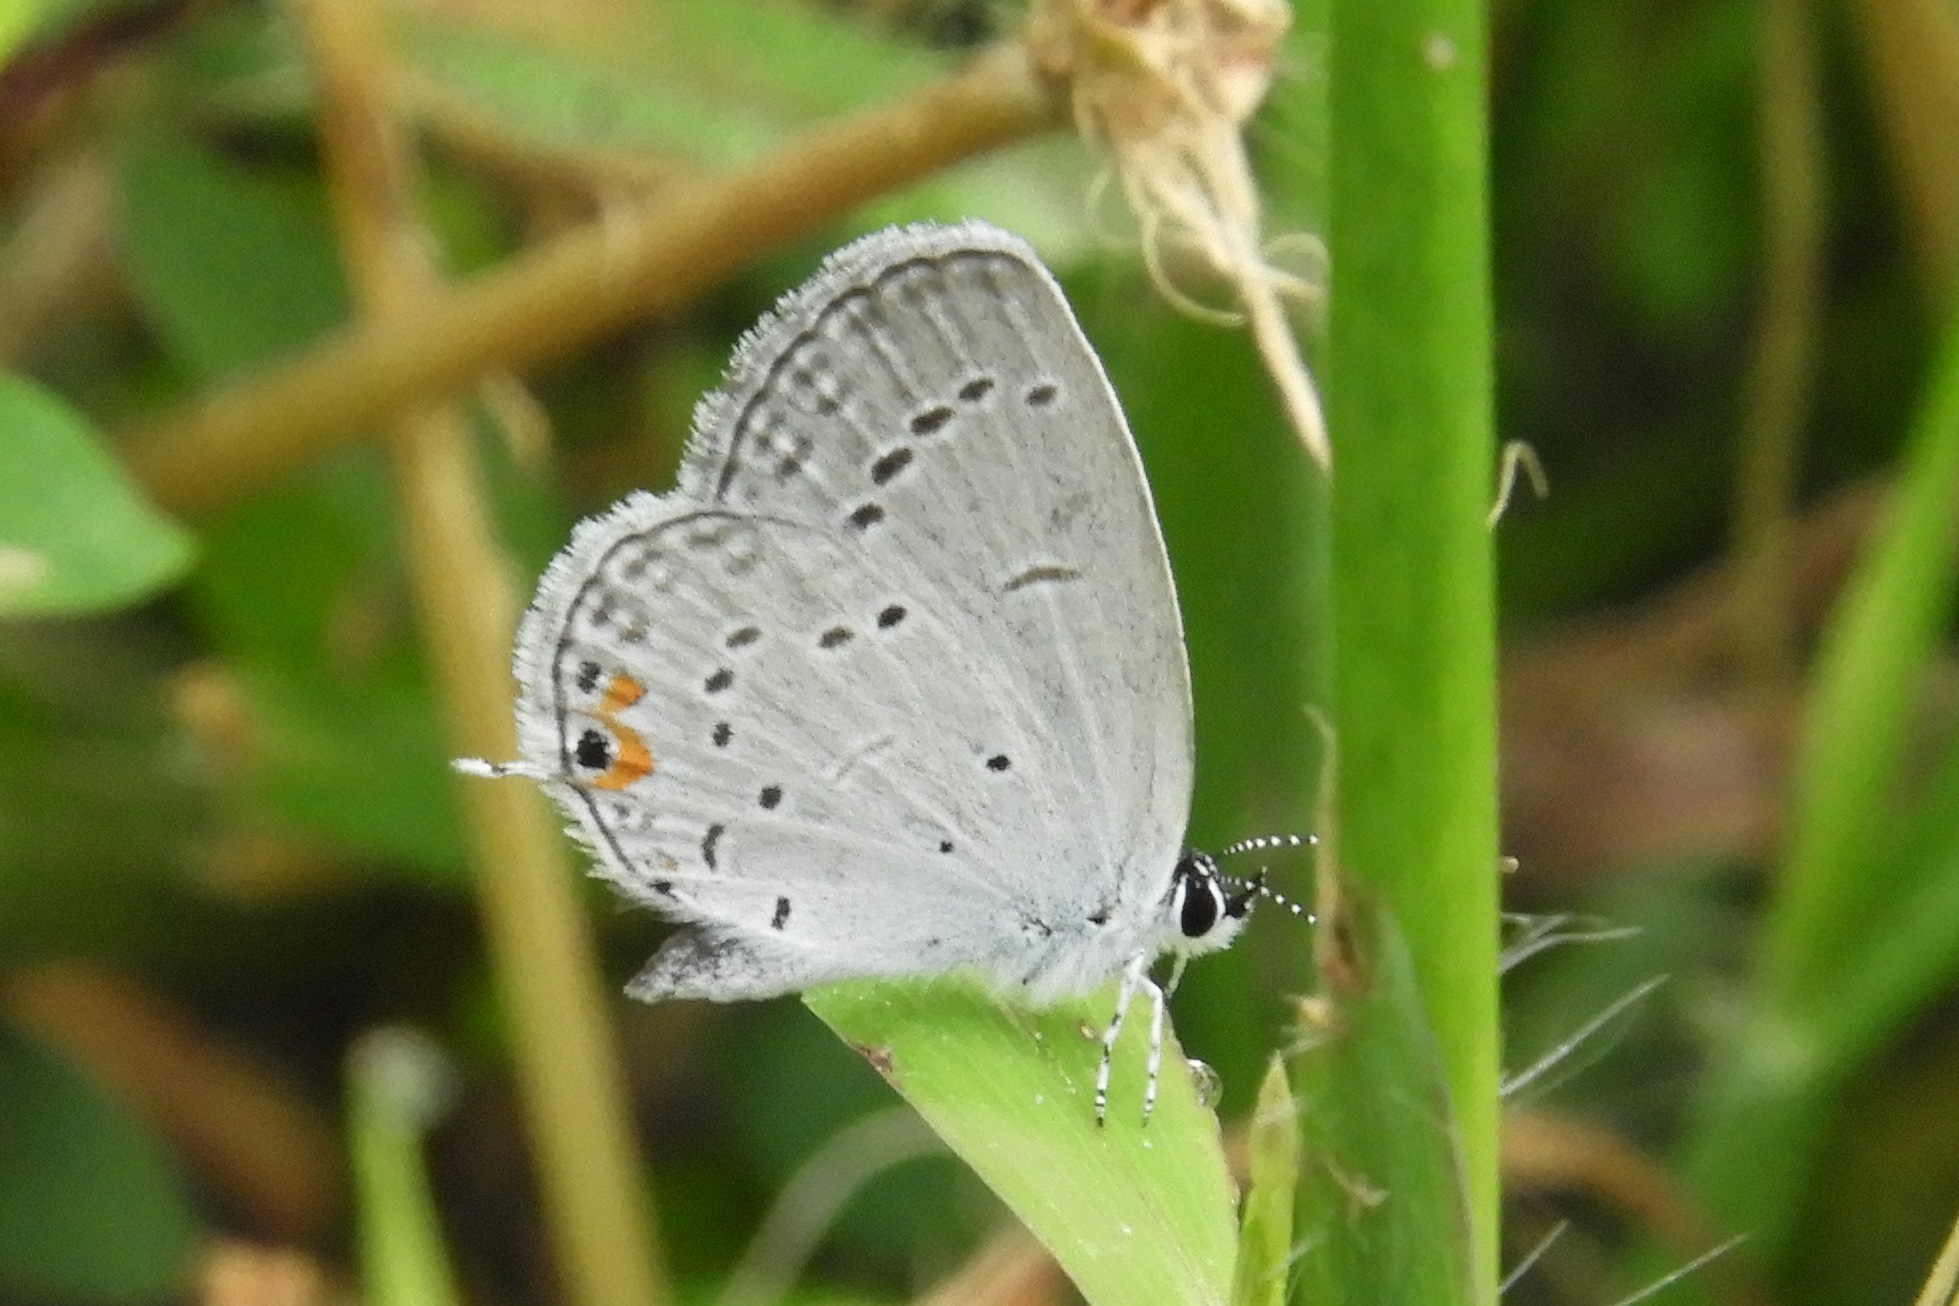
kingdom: Animalia
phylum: Arthropoda
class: Insecta
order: Lepidoptera
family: Lycaenidae
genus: Elkalyce
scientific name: Elkalyce comyntas
